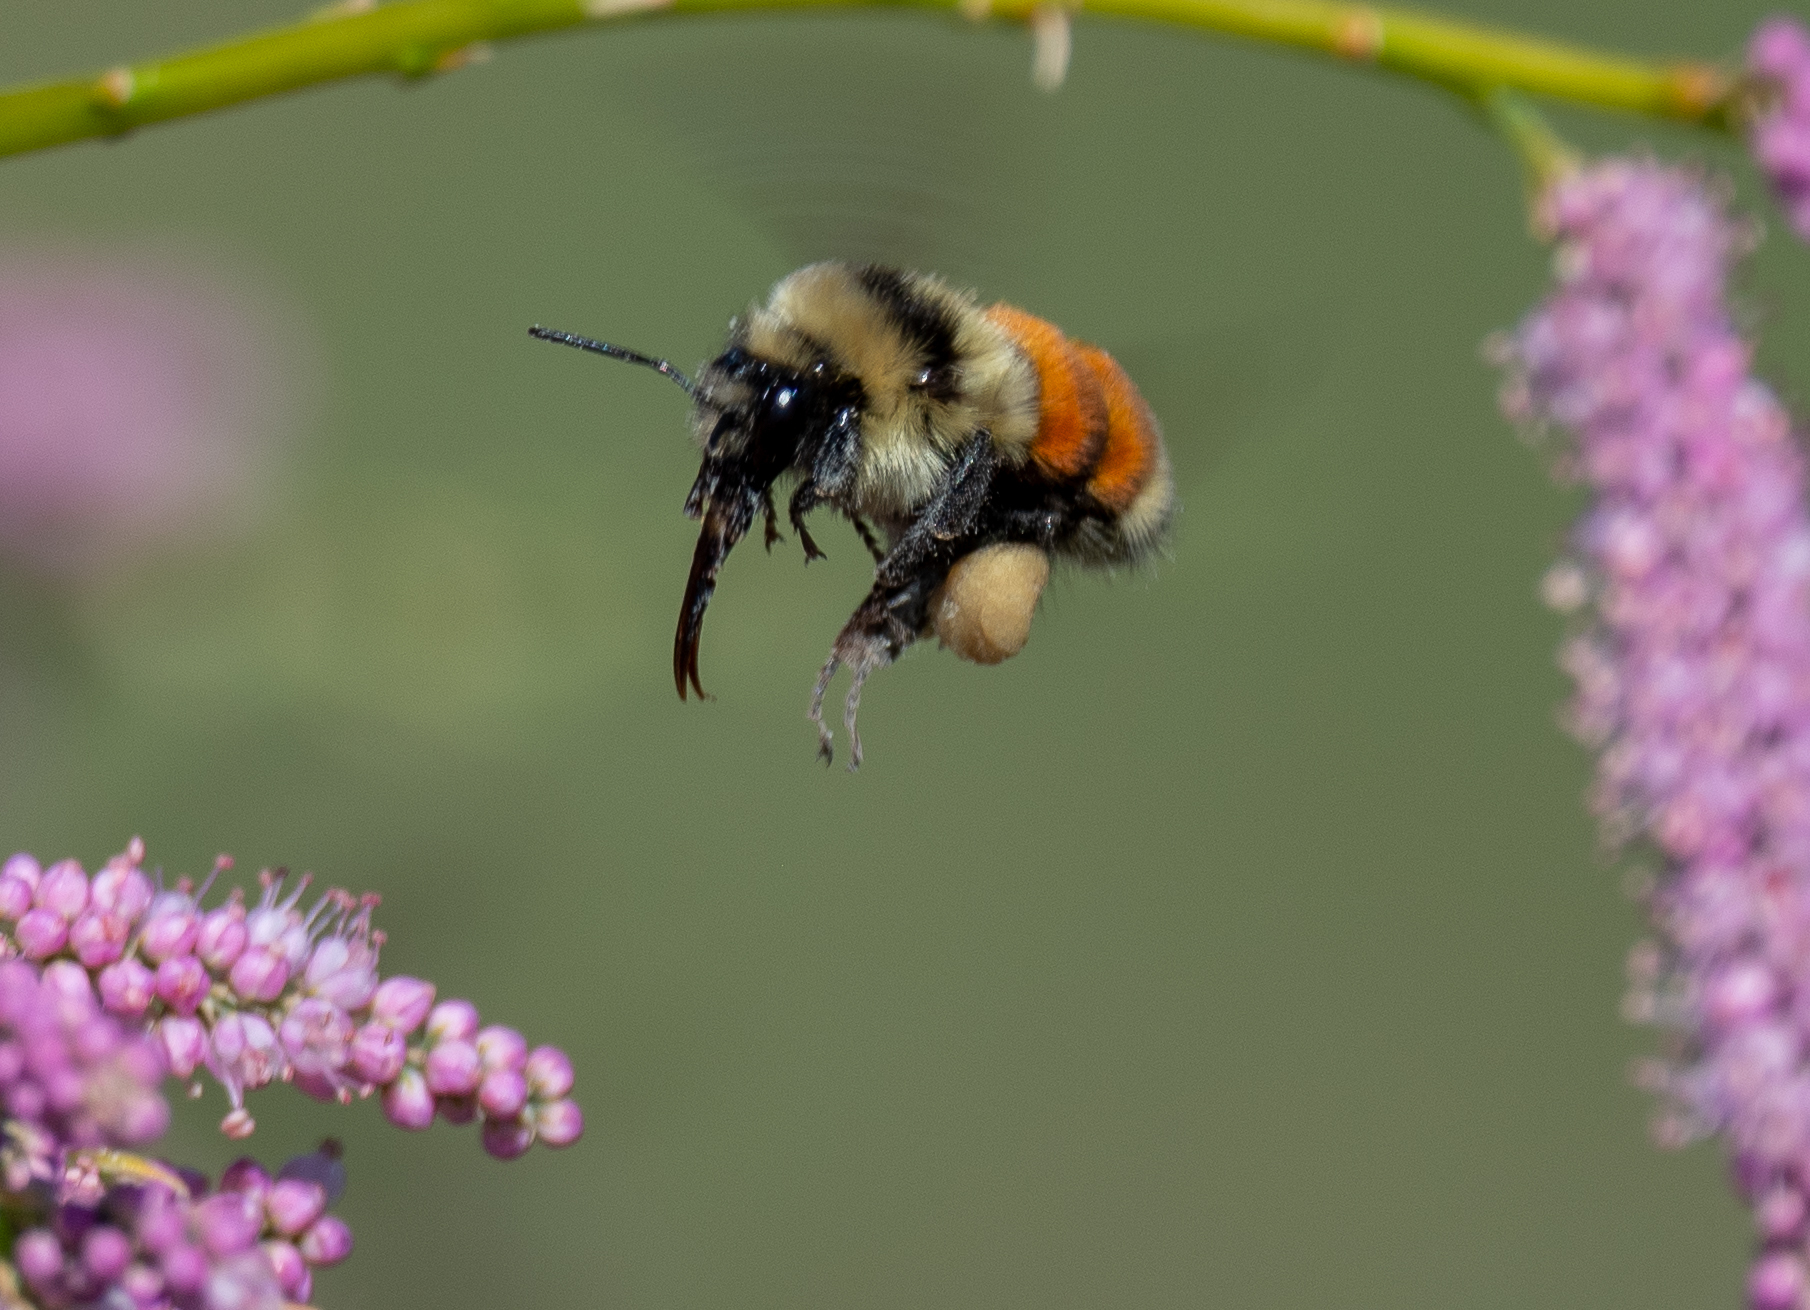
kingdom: Animalia
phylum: Arthropoda
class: Insecta
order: Hymenoptera
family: Apidae
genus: Bombus
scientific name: Bombus huntii
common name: Hunt bumble bee
